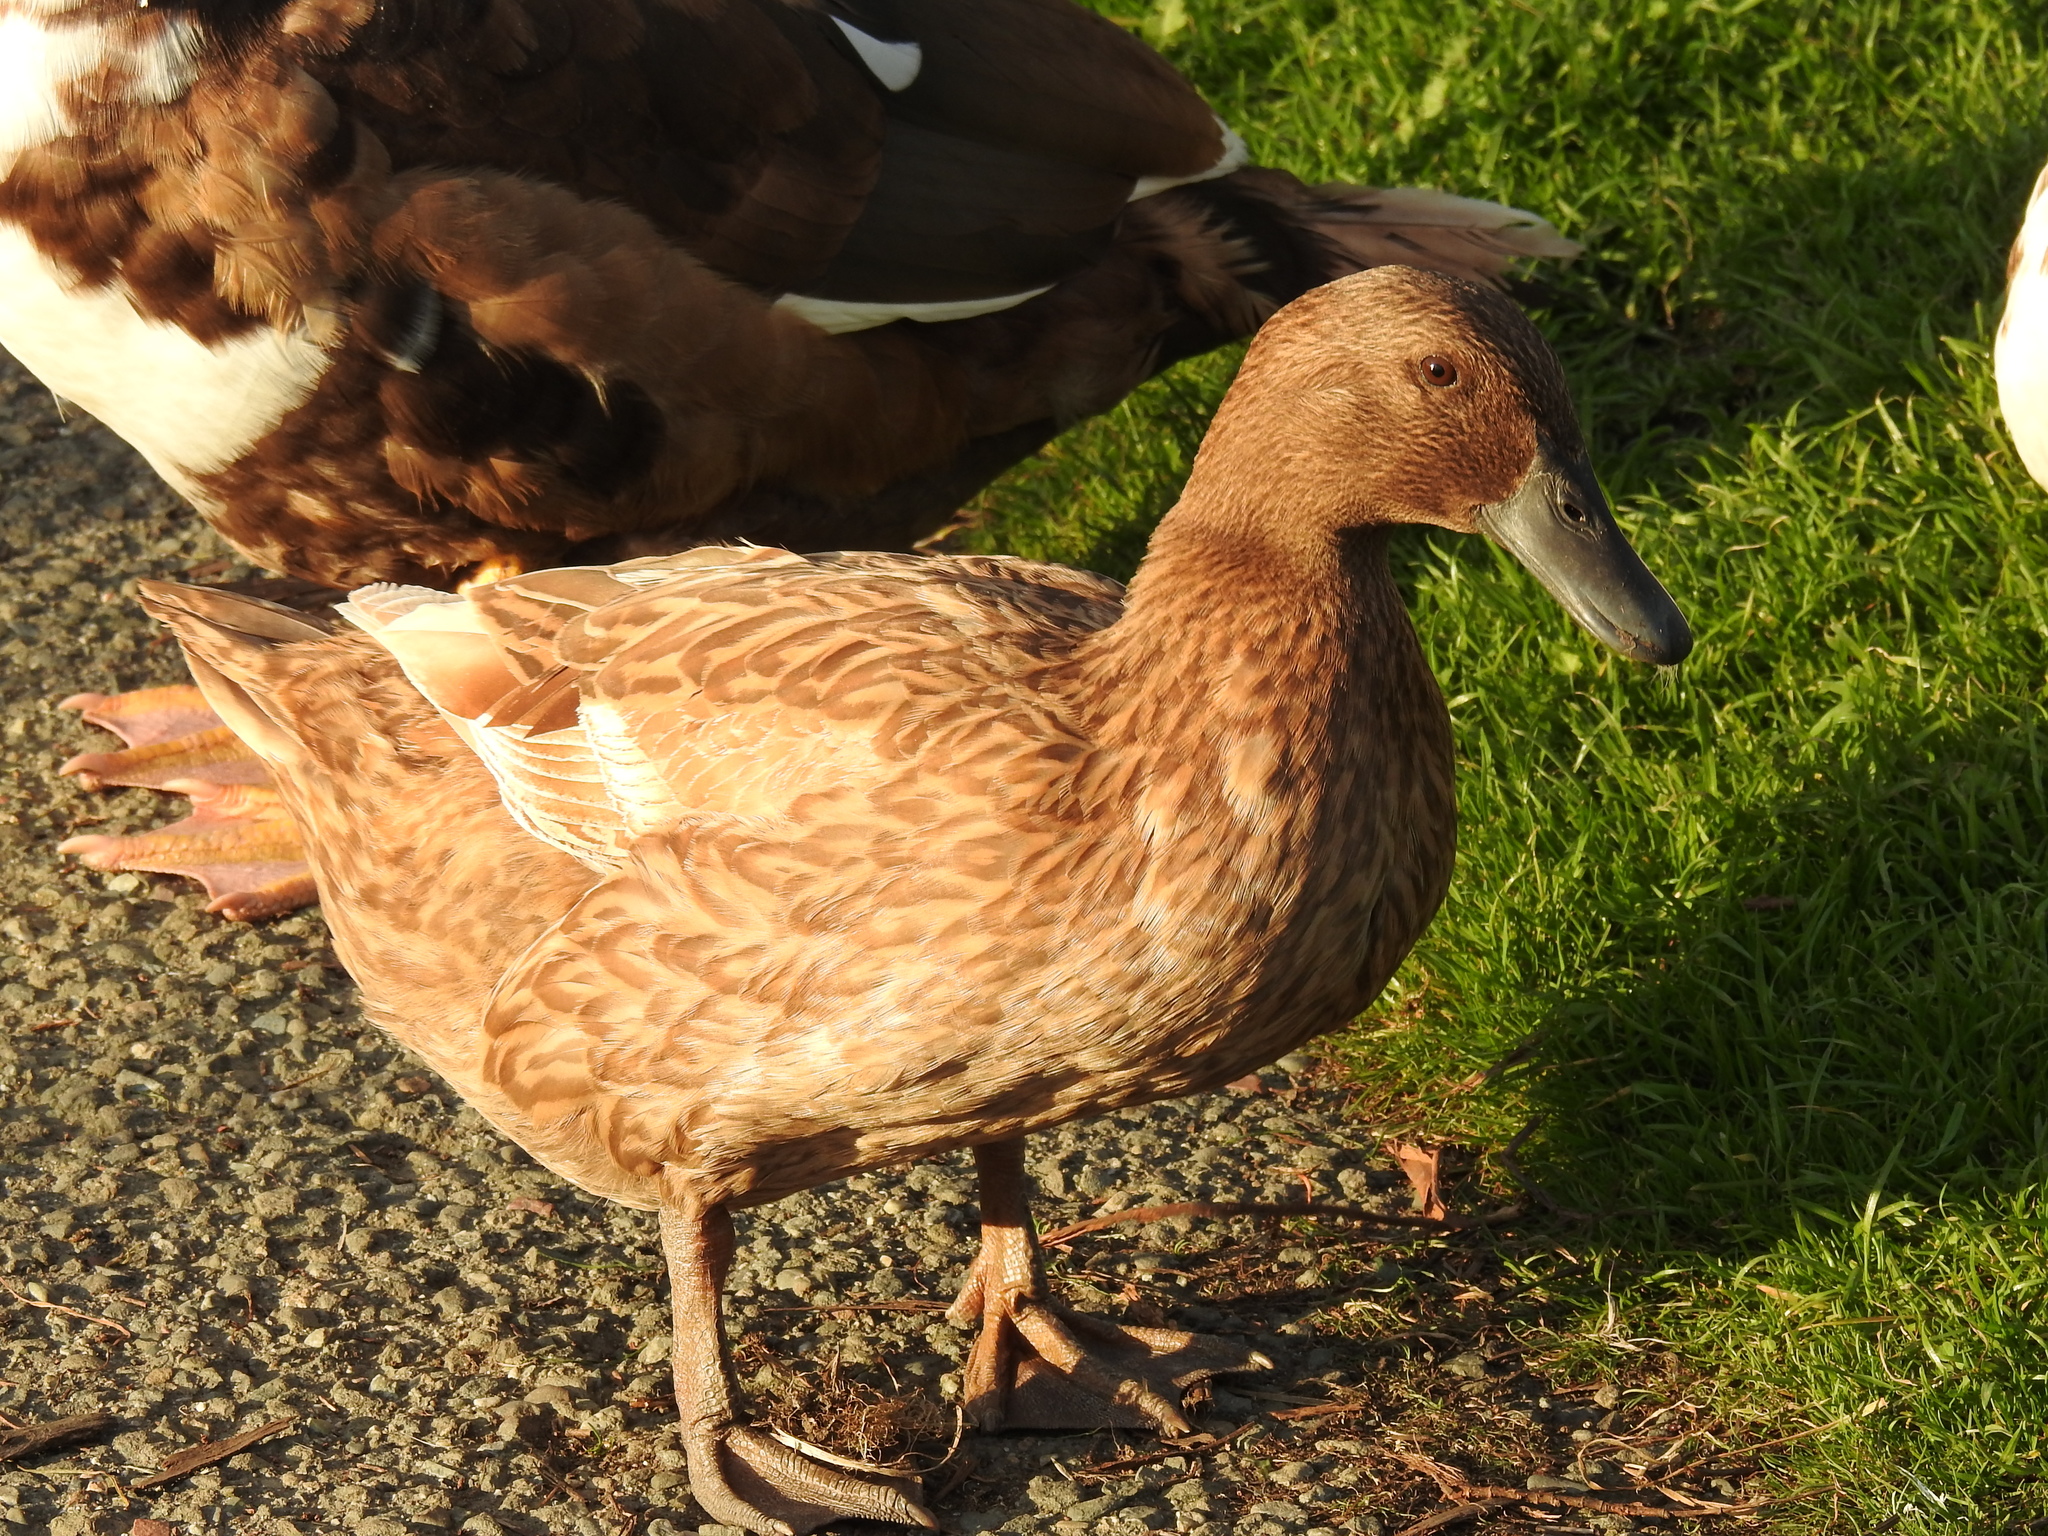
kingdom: Animalia
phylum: Chordata
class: Aves
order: Anseriformes
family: Anatidae
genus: Anas
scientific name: Anas platyrhynchos
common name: Mallard
